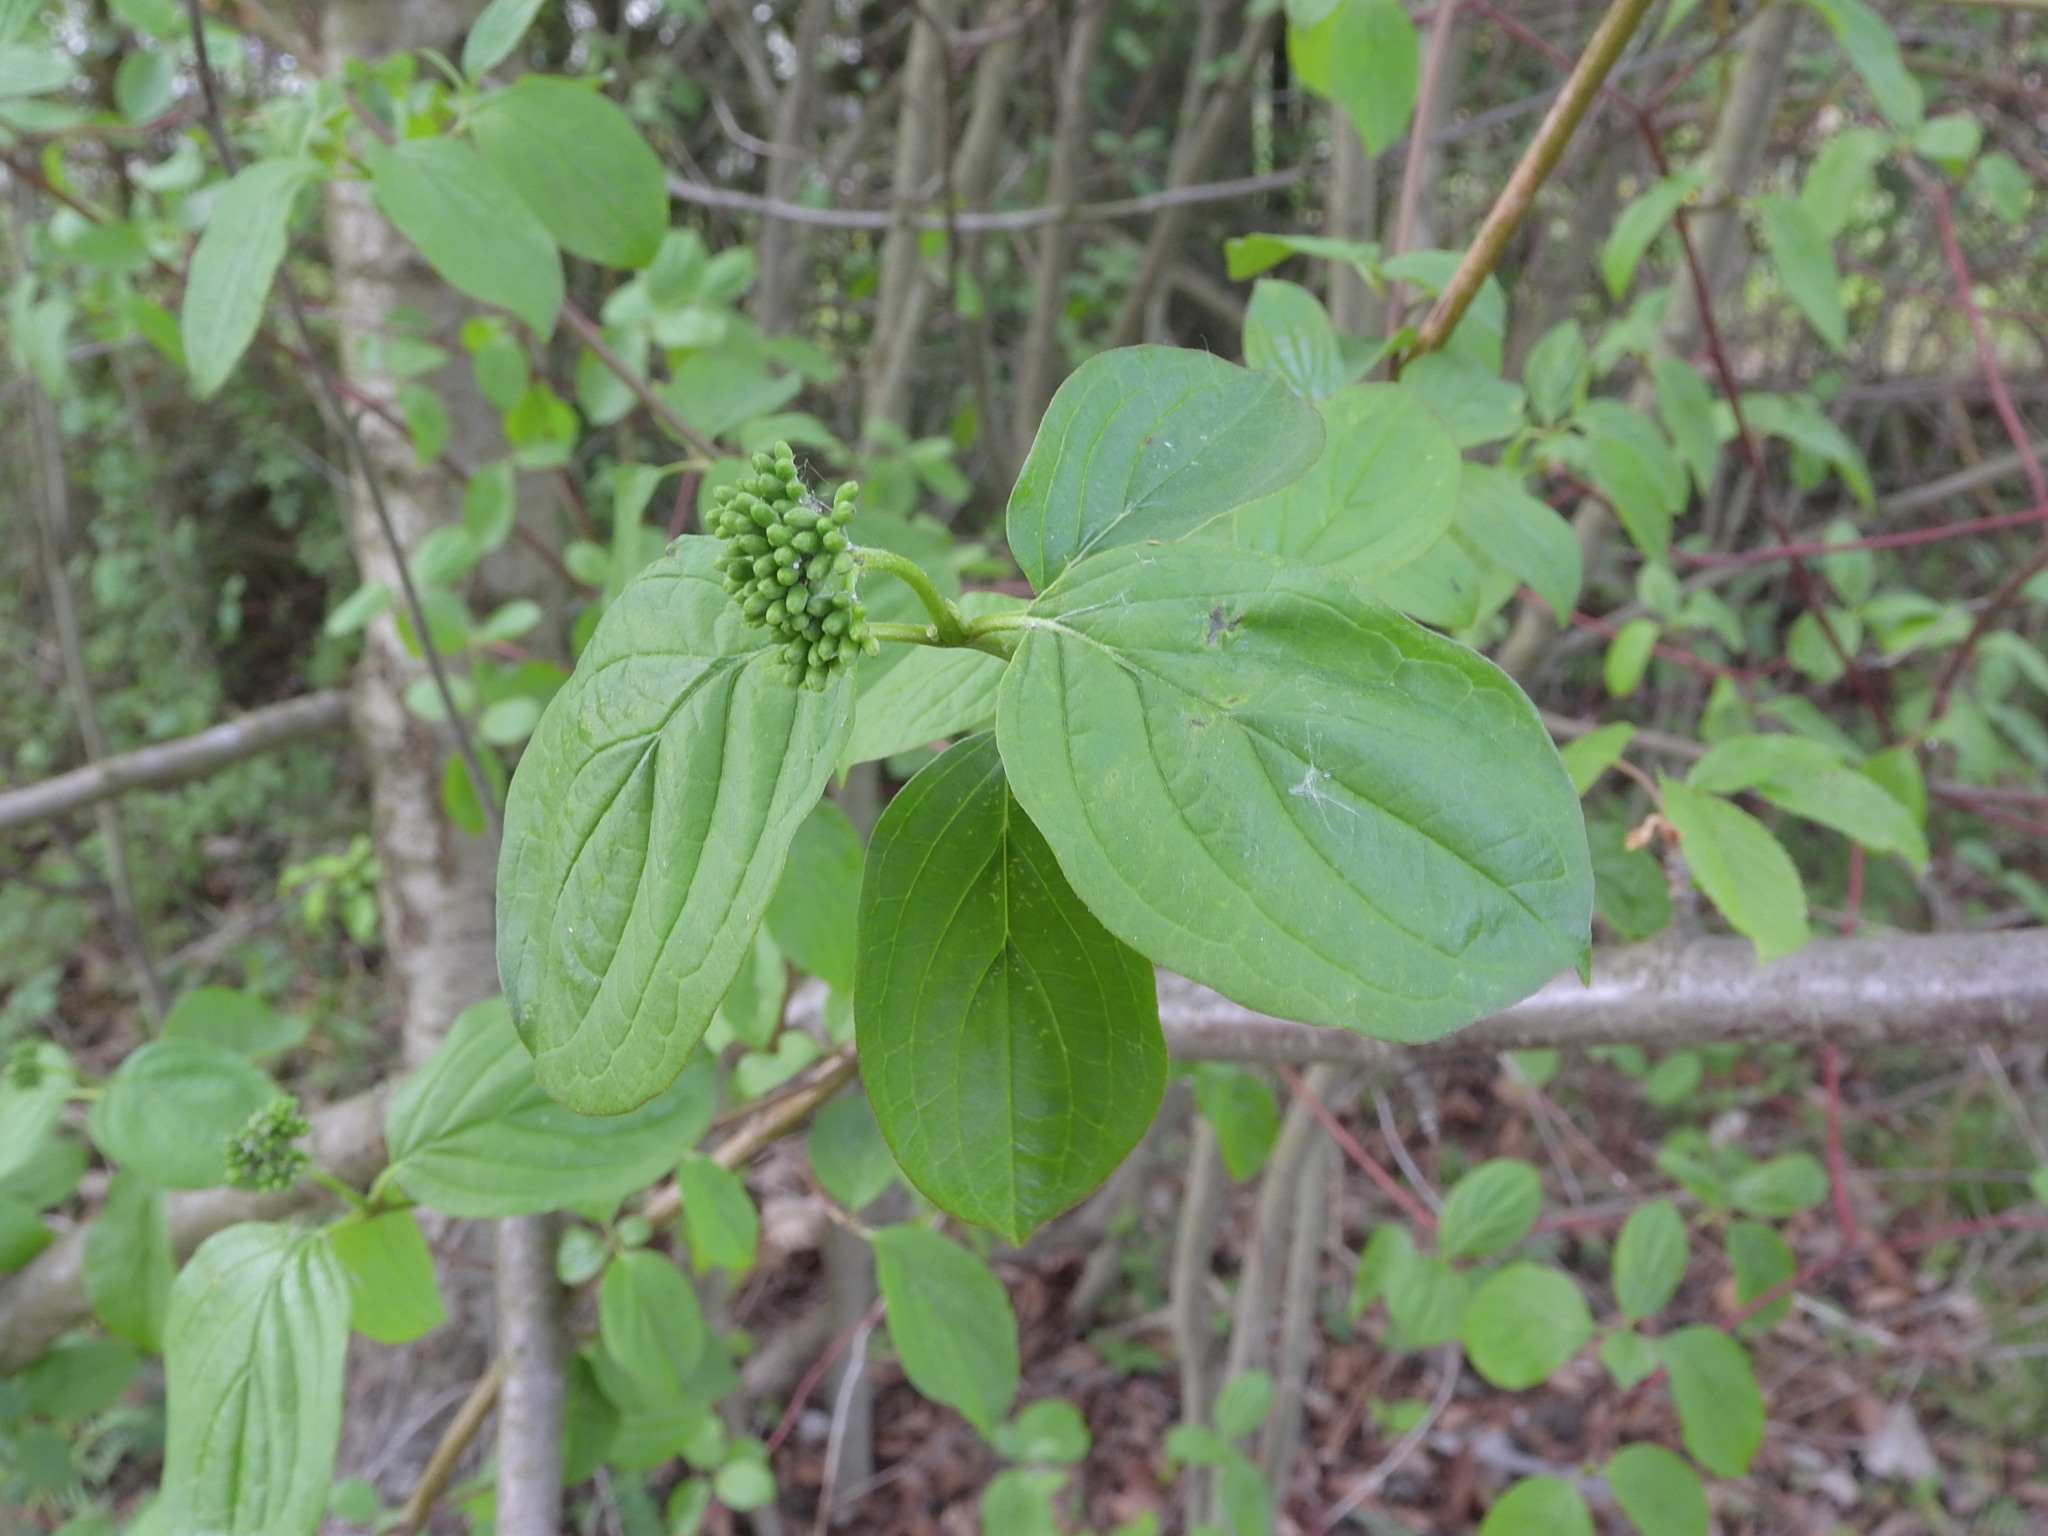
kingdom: Plantae
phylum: Tracheophyta
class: Magnoliopsida
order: Cornales
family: Cornaceae
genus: Cornus
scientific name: Cornus sanguinea
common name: Dogwood
